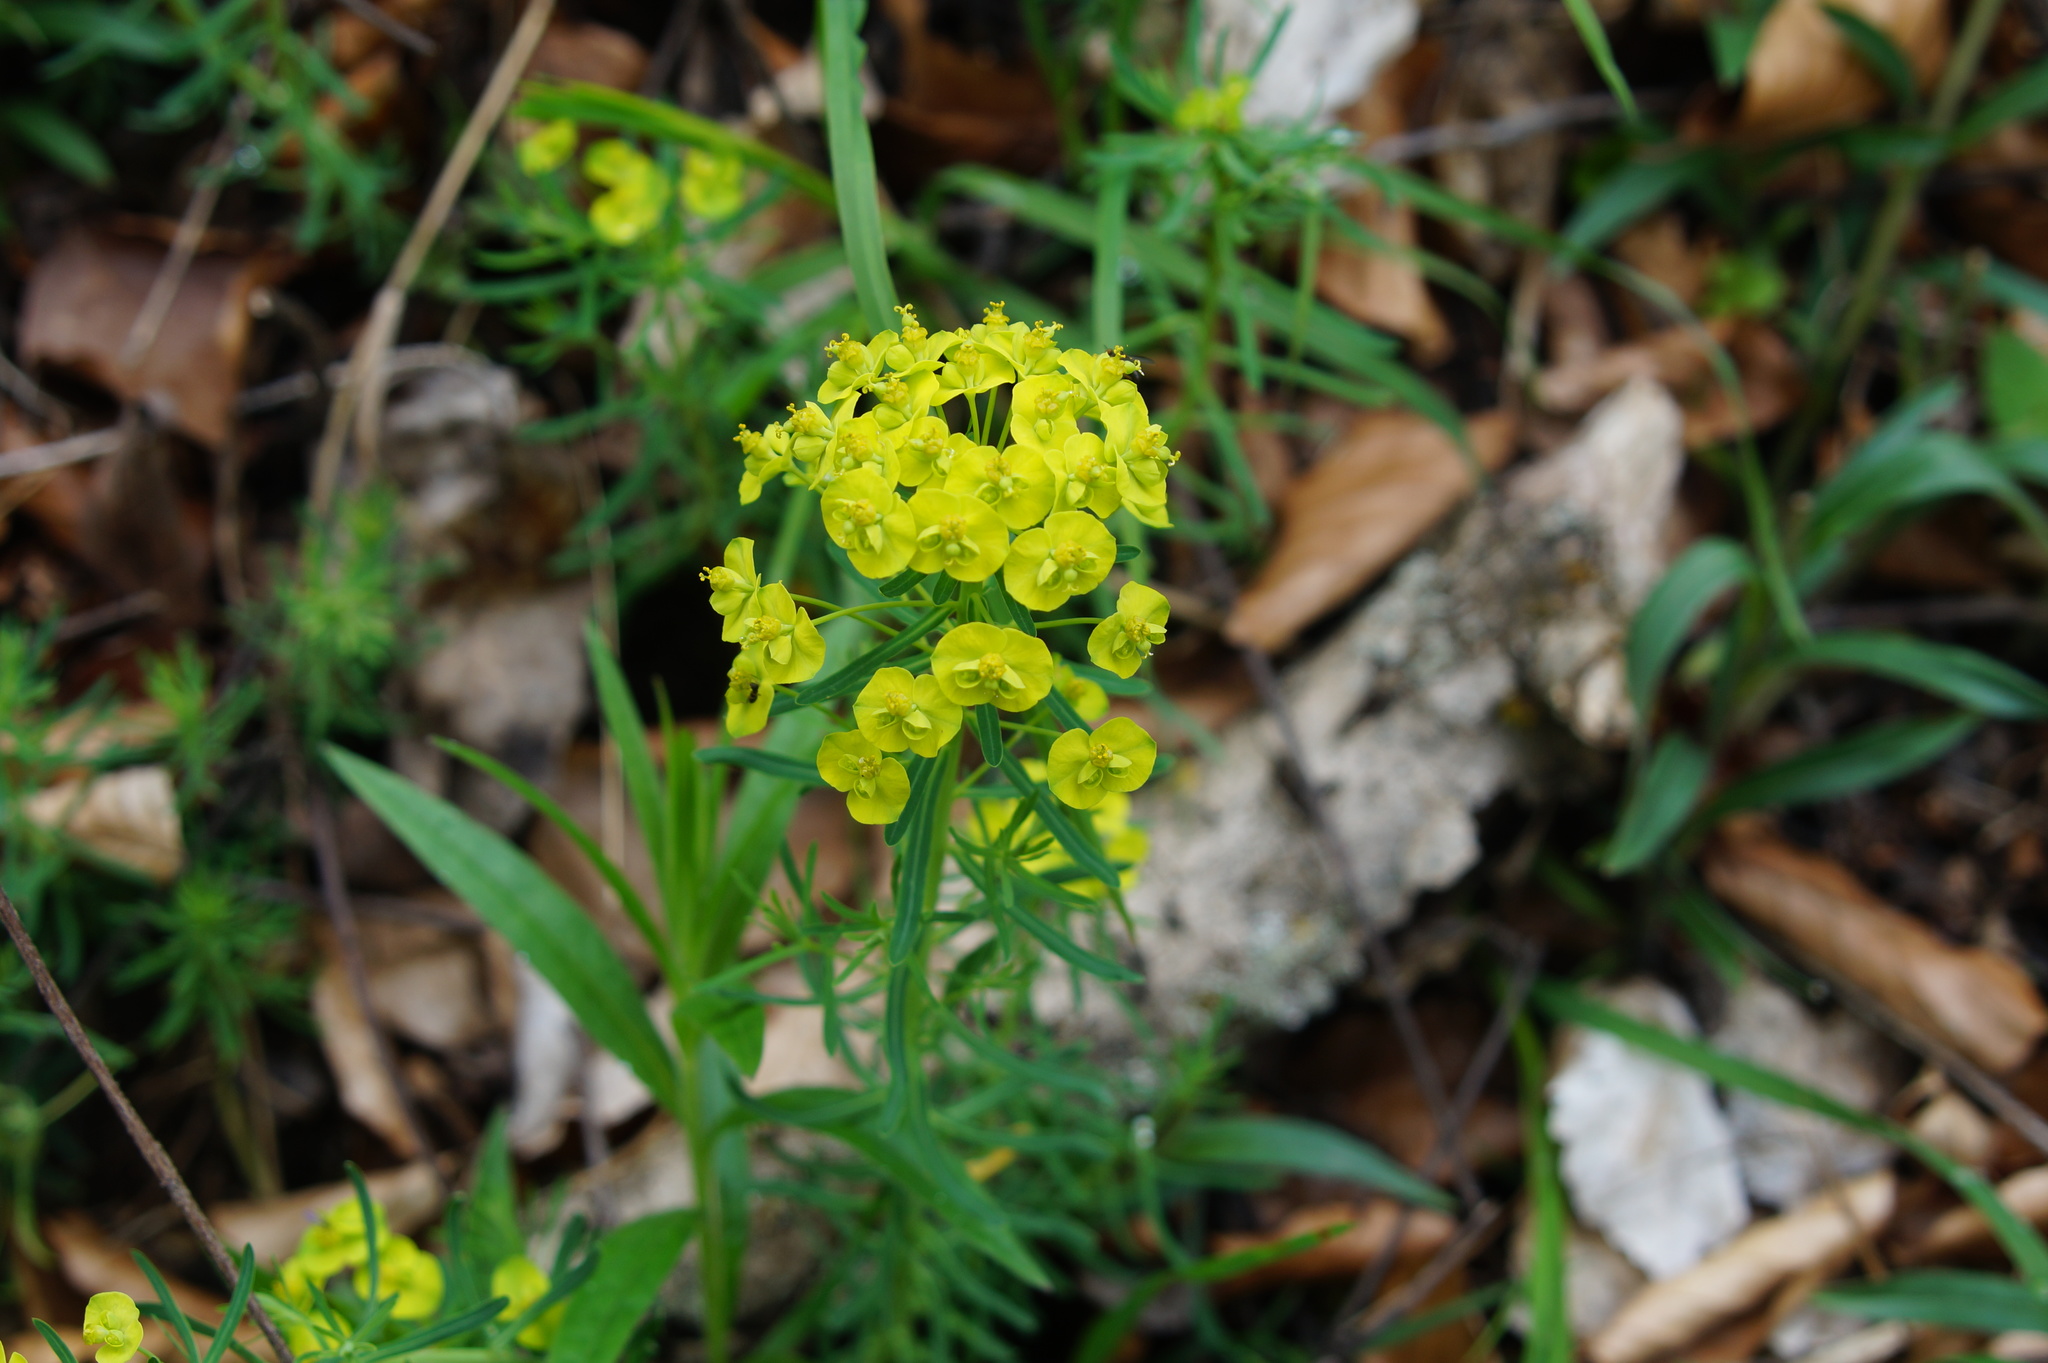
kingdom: Plantae
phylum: Tracheophyta
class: Magnoliopsida
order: Malpighiales
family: Euphorbiaceae
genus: Euphorbia
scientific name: Euphorbia cyparissias
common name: Cypress spurge
